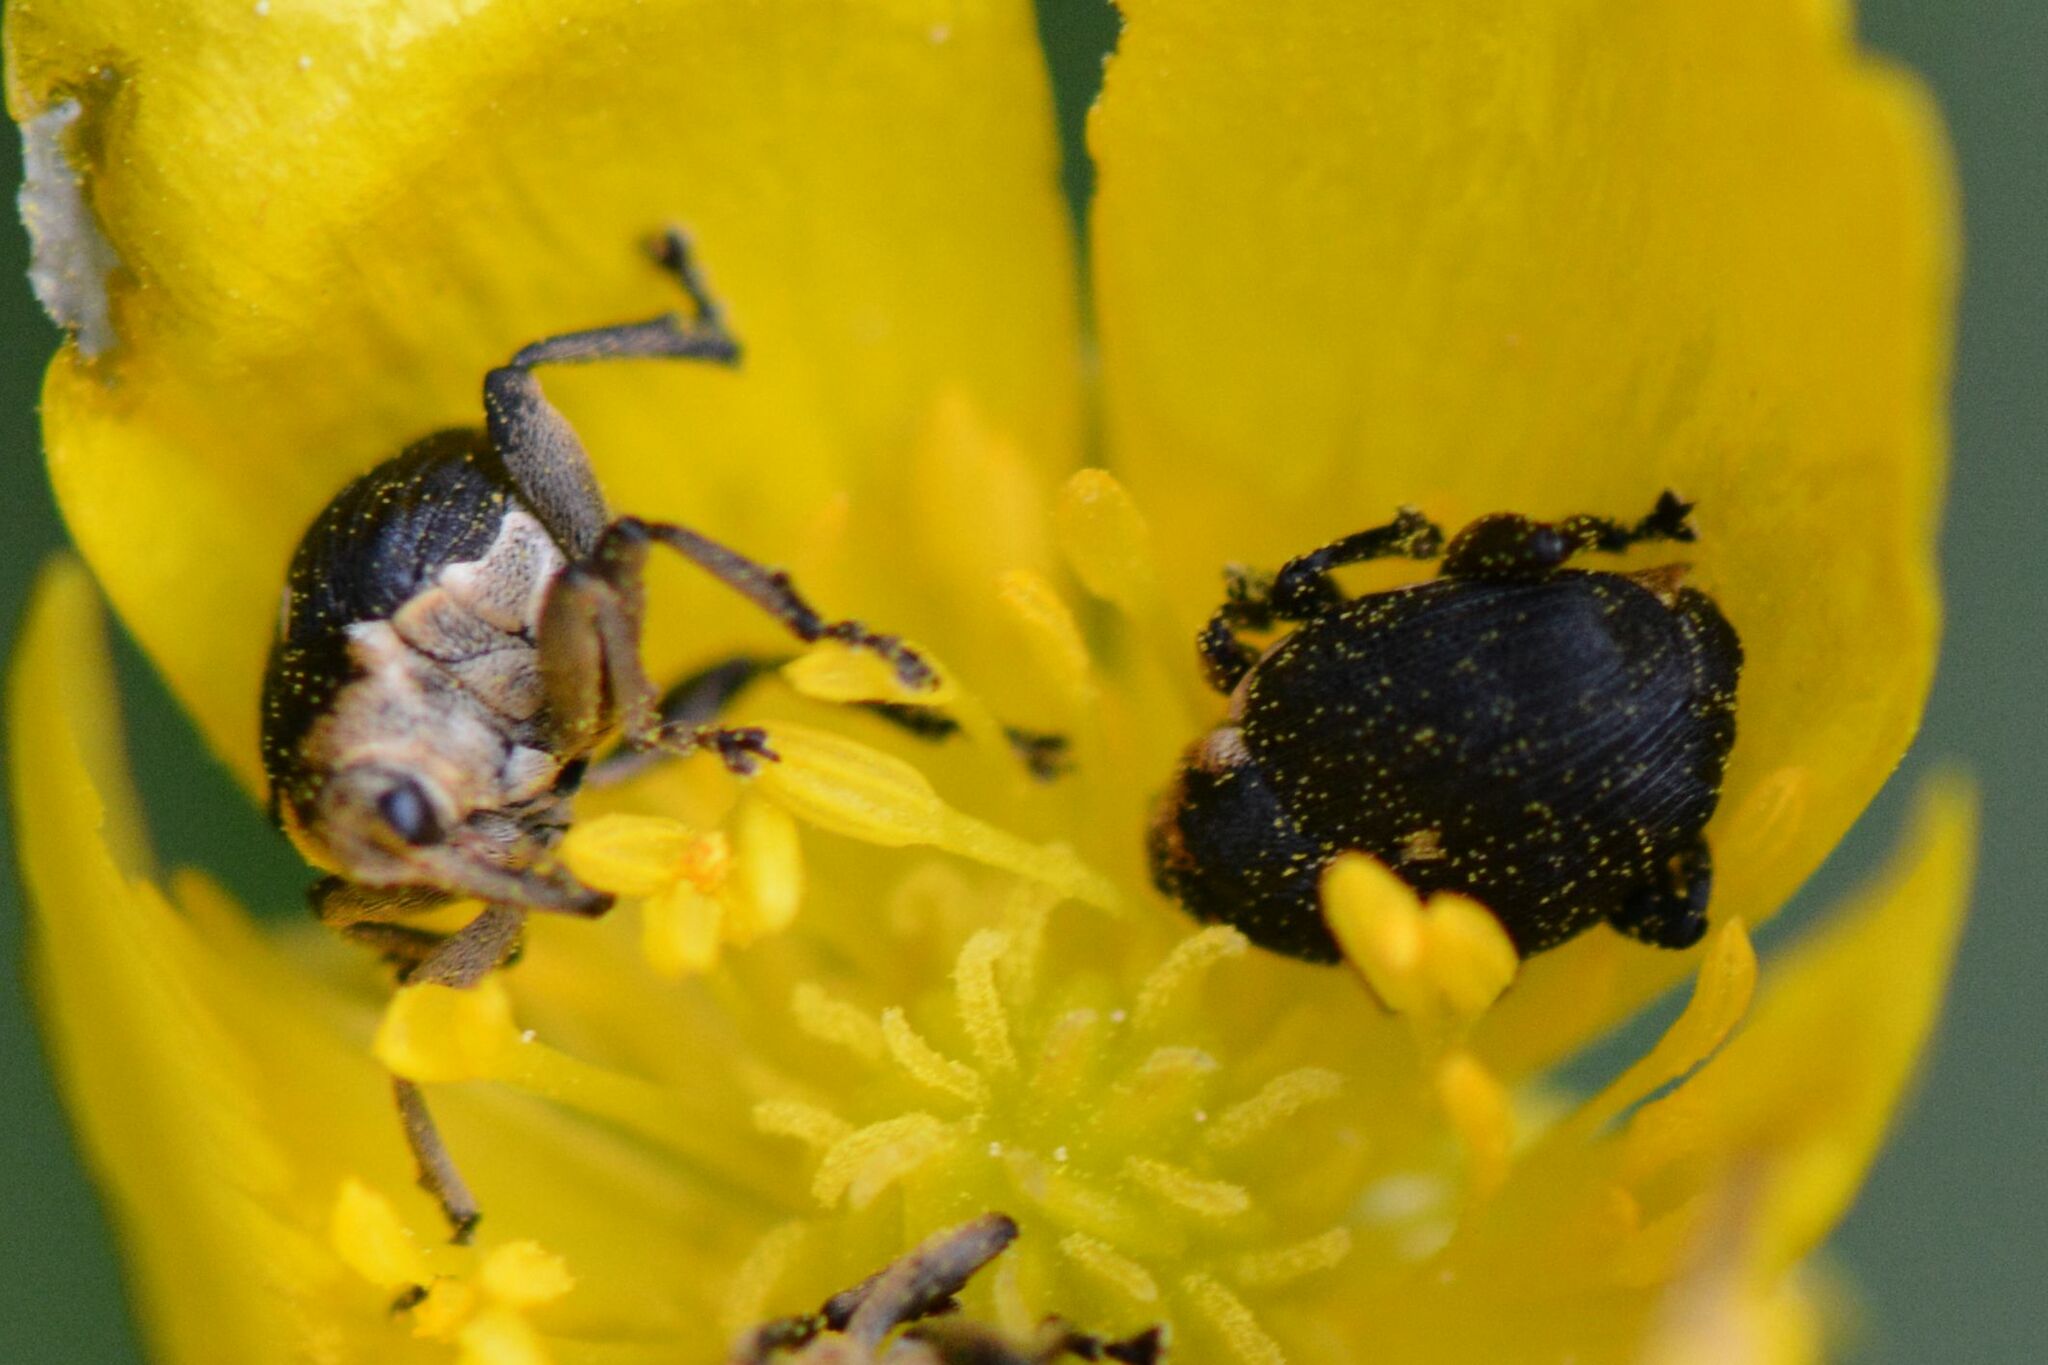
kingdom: Animalia
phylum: Arthropoda
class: Insecta
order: Coleoptera
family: Curculionidae
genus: Mononychus
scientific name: Mononychus punctumalbum
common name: Iris weevil
